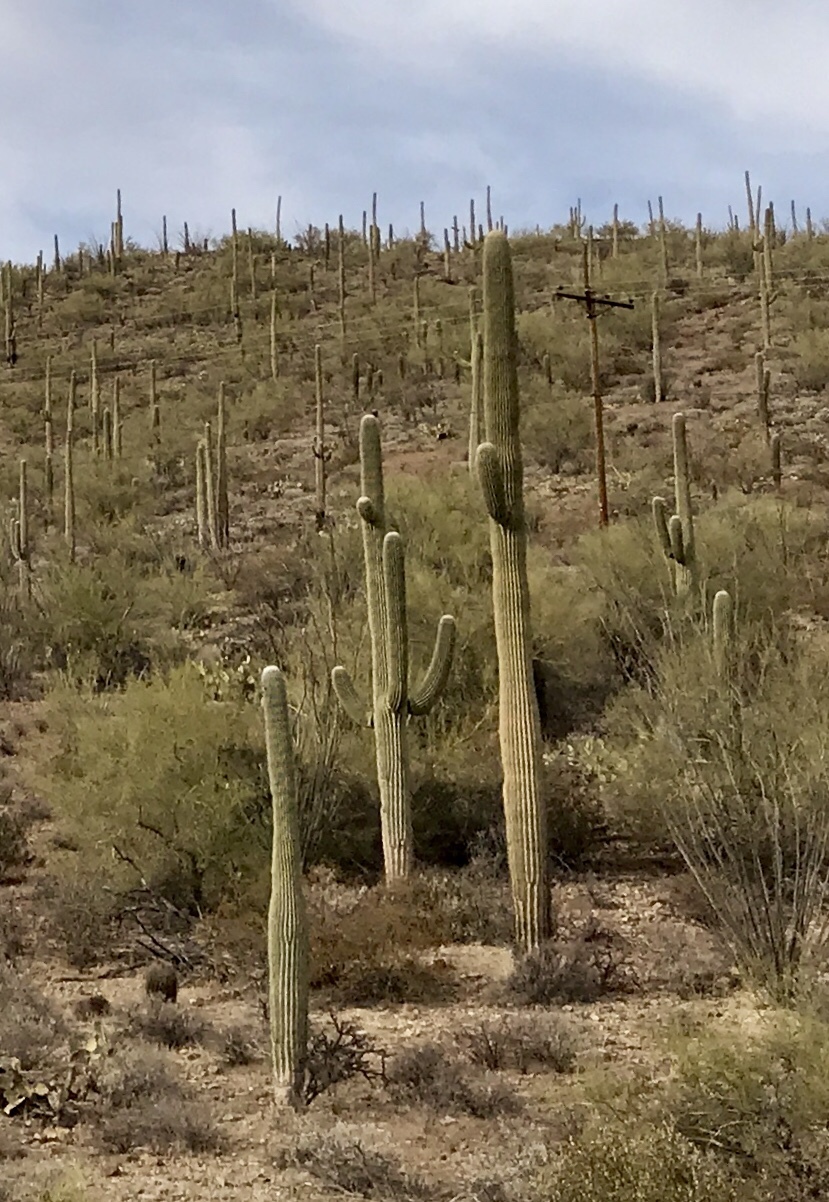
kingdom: Plantae
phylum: Tracheophyta
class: Magnoliopsida
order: Caryophyllales
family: Cactaceae
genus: Carnegiea
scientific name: Carnegiea gigantea
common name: Saguaro
